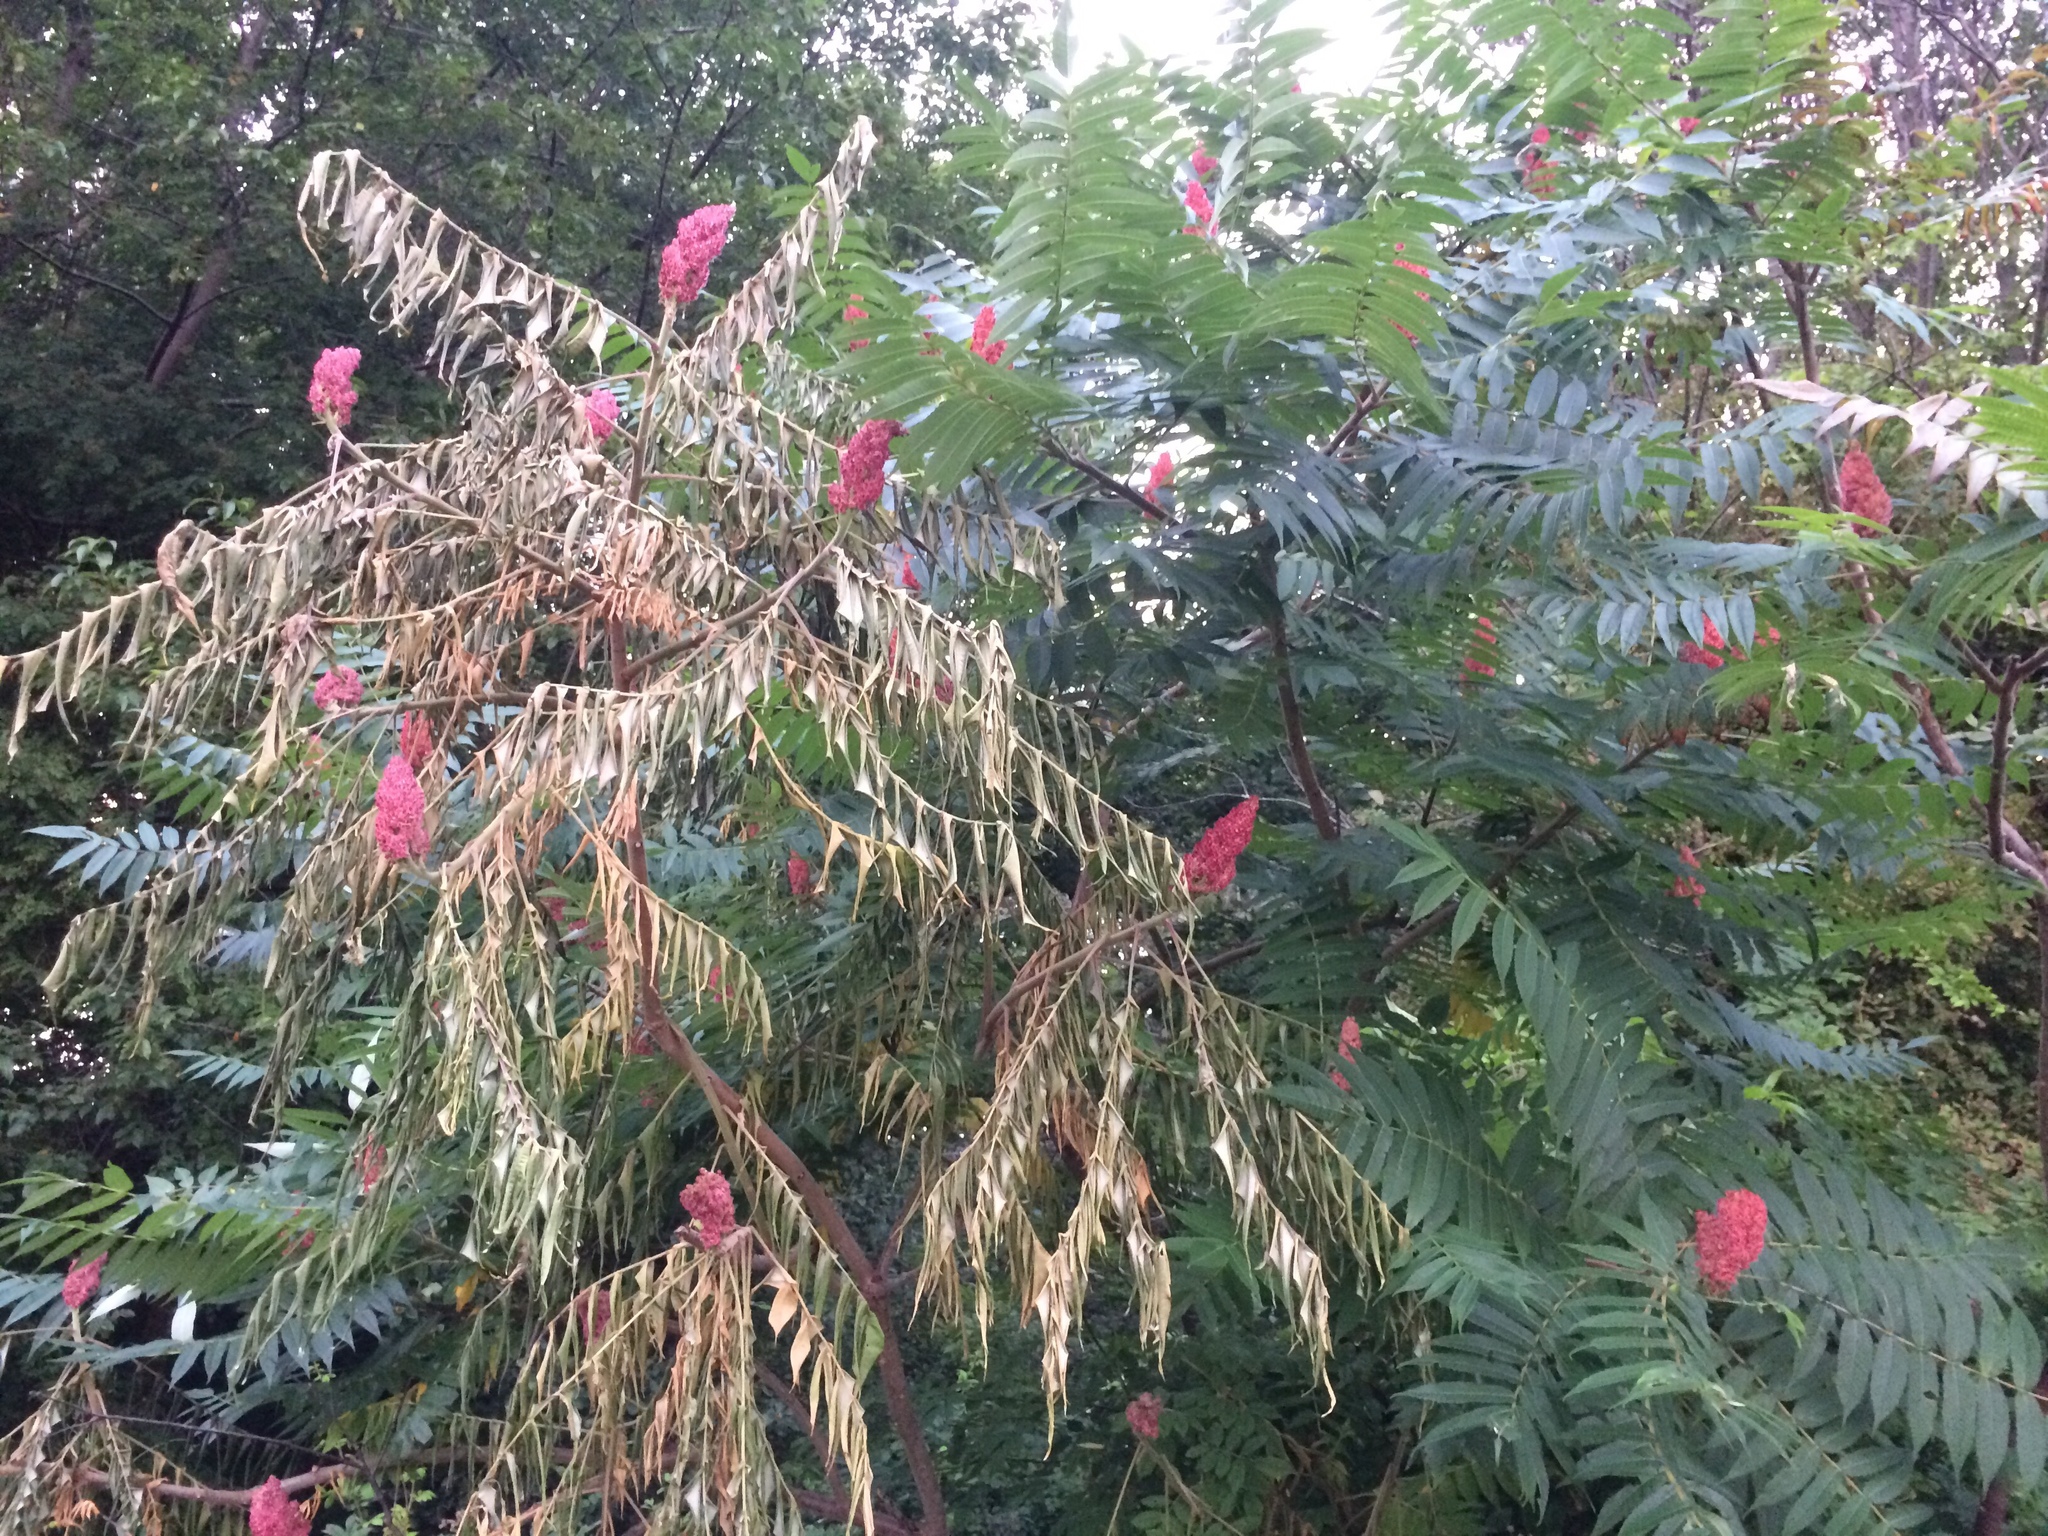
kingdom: Plantae
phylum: Tracheophyta
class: Magnoliopsida
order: Sapindales
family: Anacardiaceae
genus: Rhus
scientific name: Rhus typhina
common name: Staghorn sumac
